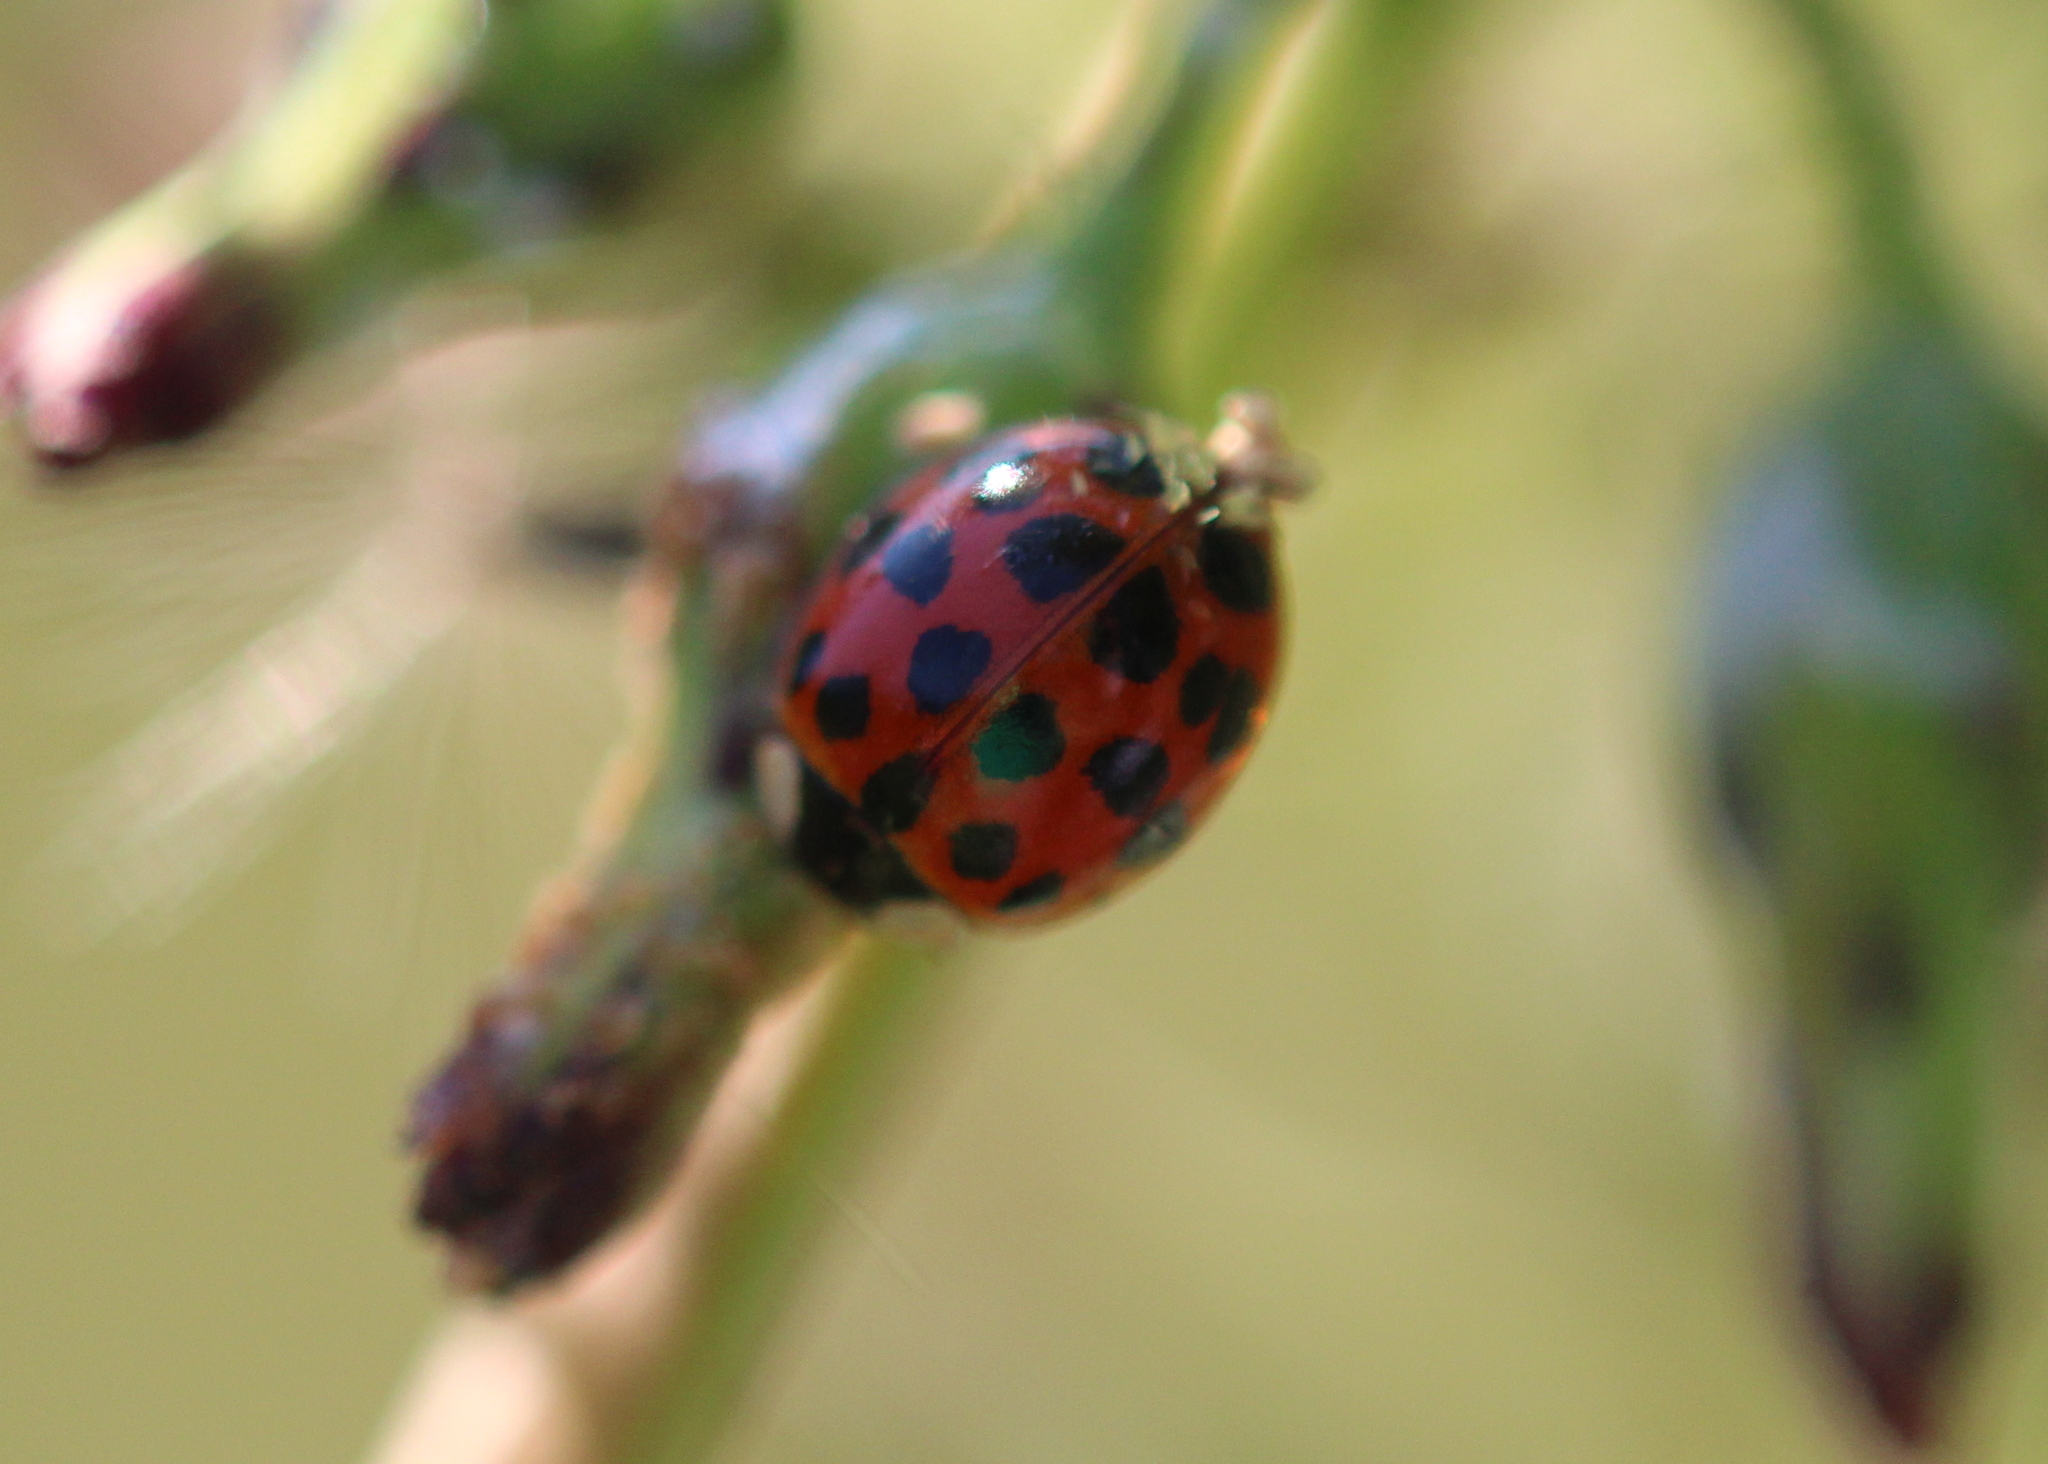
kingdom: Fungi
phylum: Ascomycota
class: Laboulbeniomycetes
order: Laboulbeniales
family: Laboulbeniaceae
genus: Hesperomyces
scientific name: Hesperomyces harmoniae
